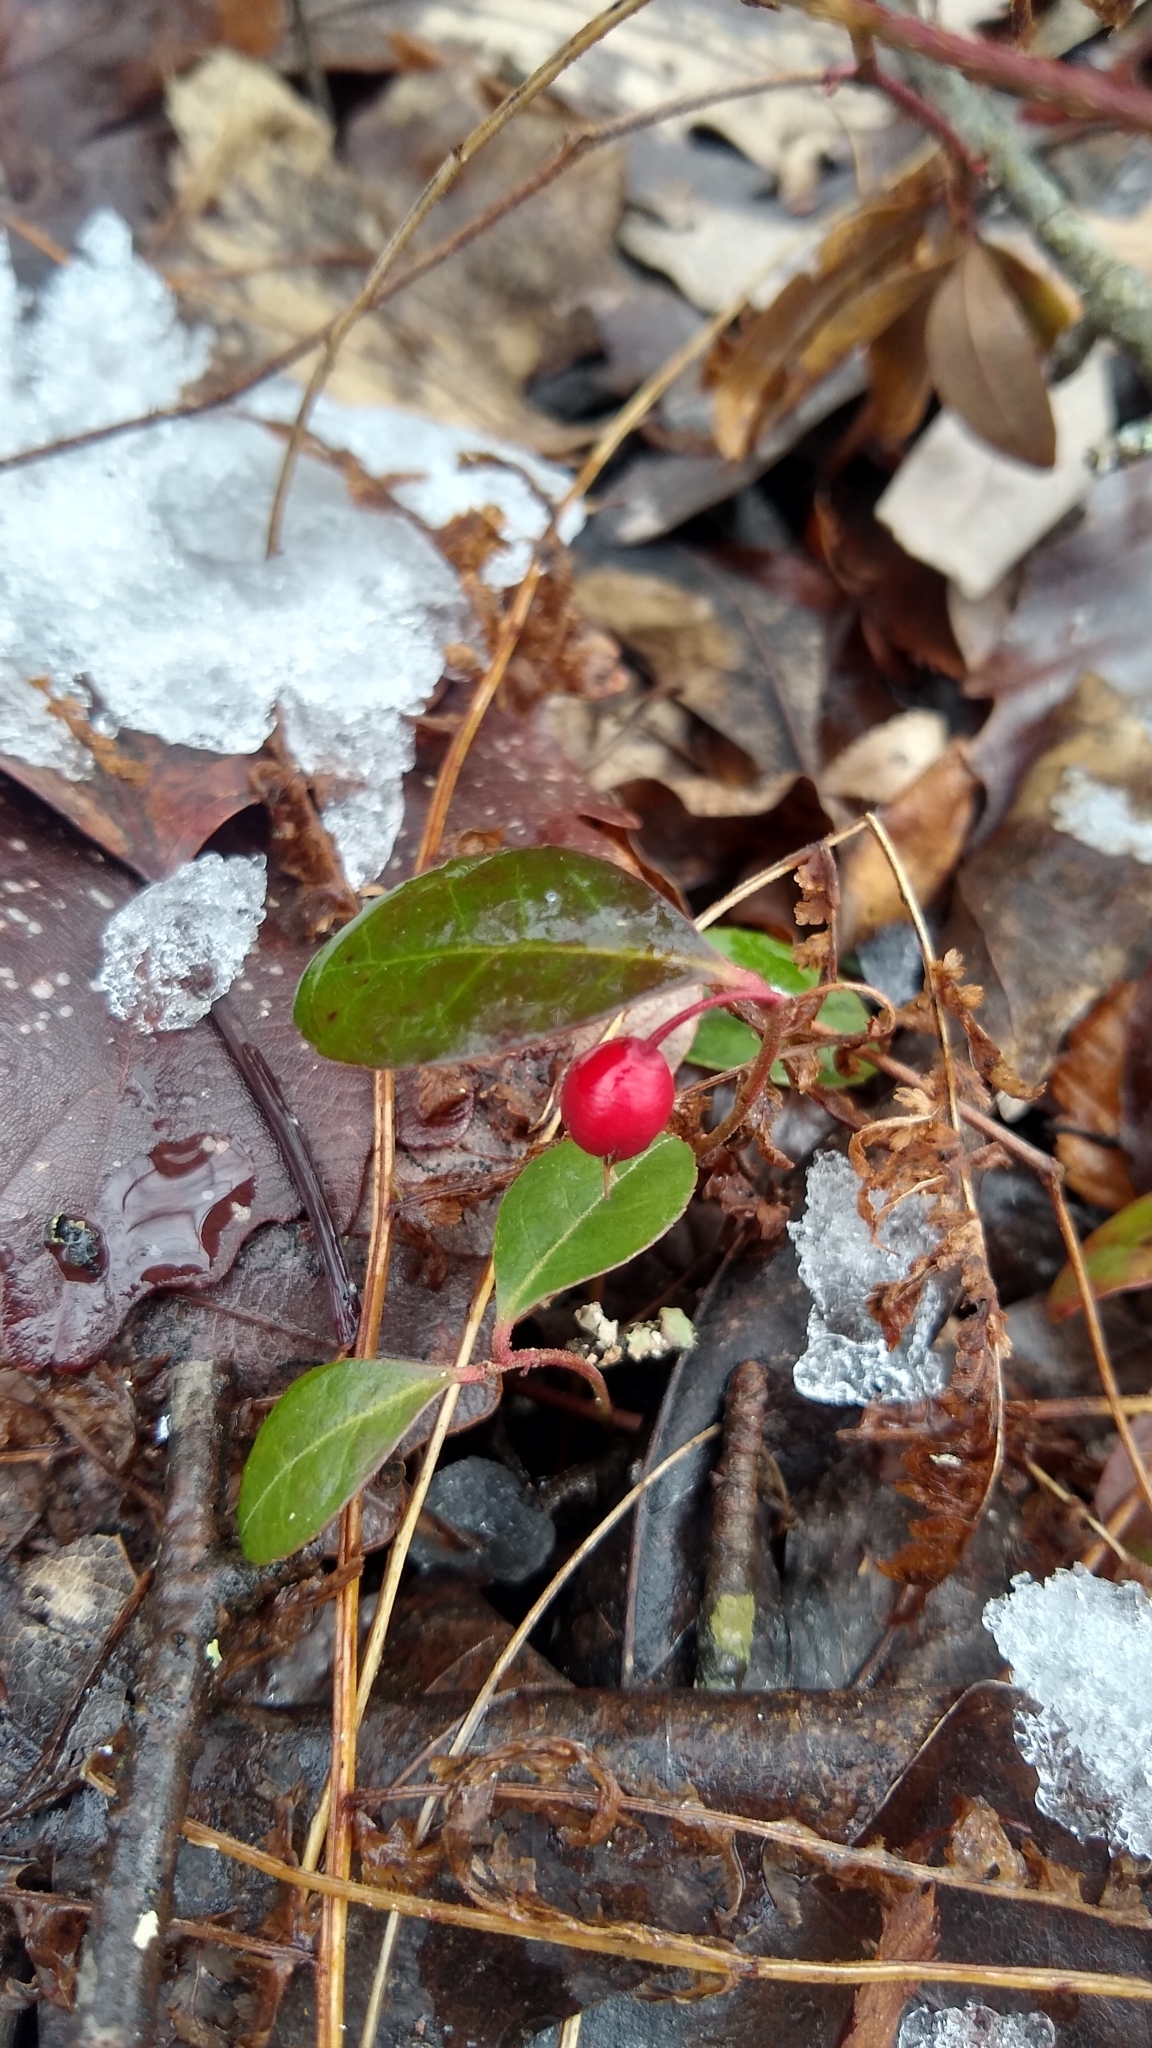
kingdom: Plantae
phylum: Tracheophyta
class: Magnoliopsida
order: Ericales
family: Ericaceae
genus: Gaultheria
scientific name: Gaultheria procumbens
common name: Checkerberry
